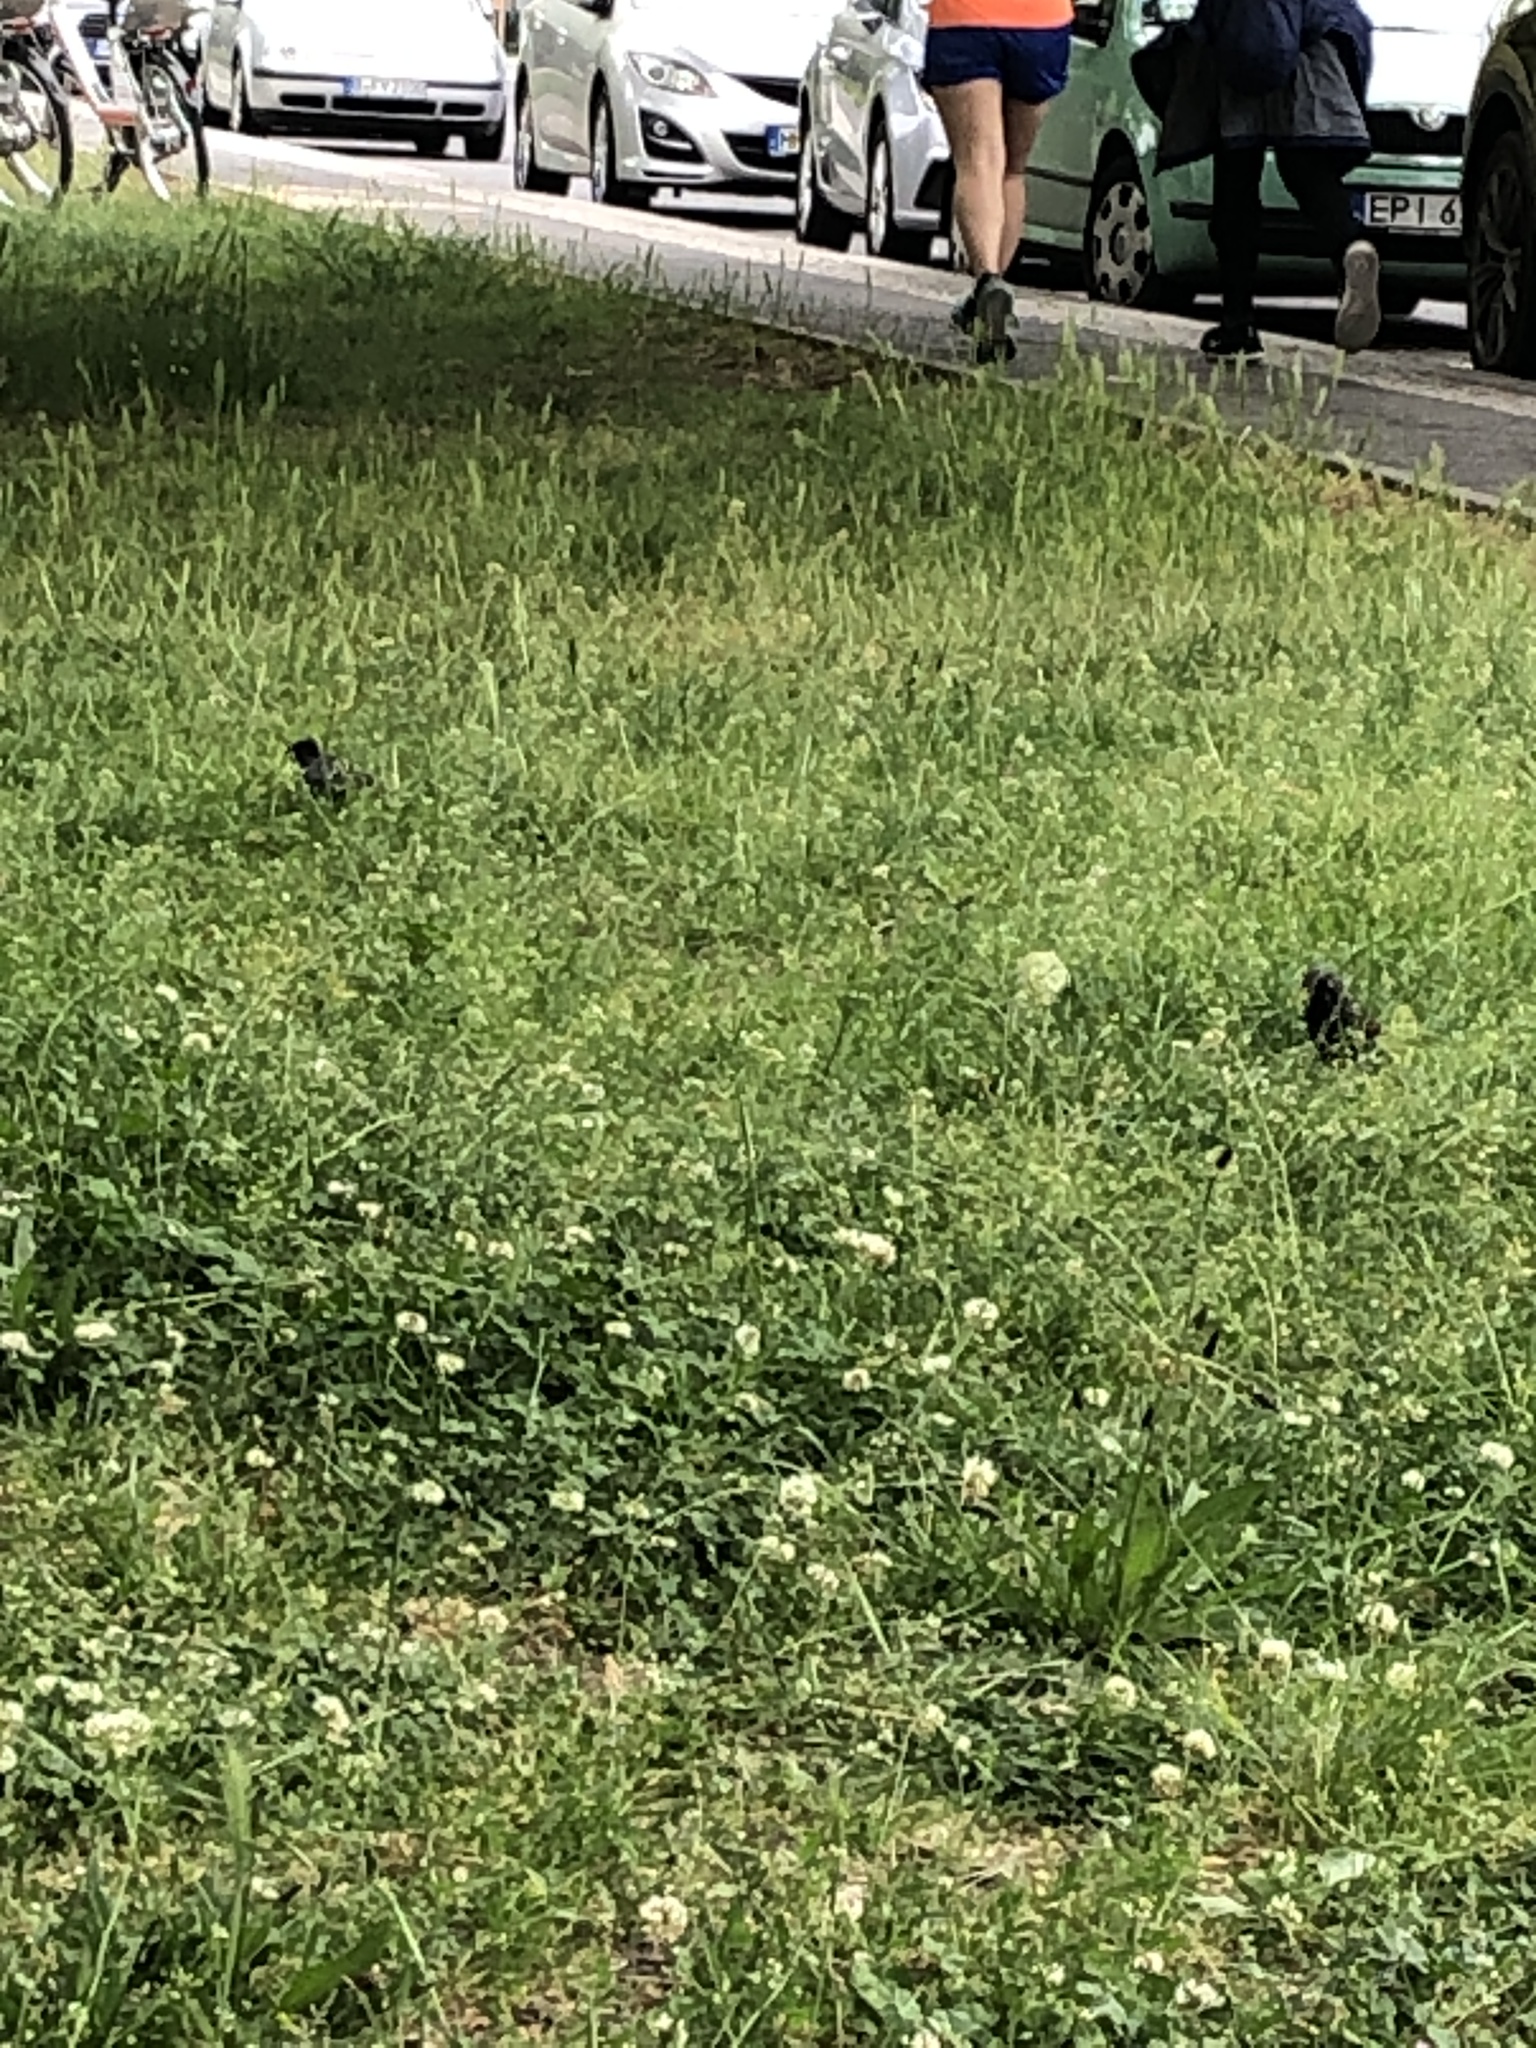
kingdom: Animalia
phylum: Chordata
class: Aves
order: Passeriformes
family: Sturnidae
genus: Sturnus
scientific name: Sturnus vulgaris
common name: Common starling
